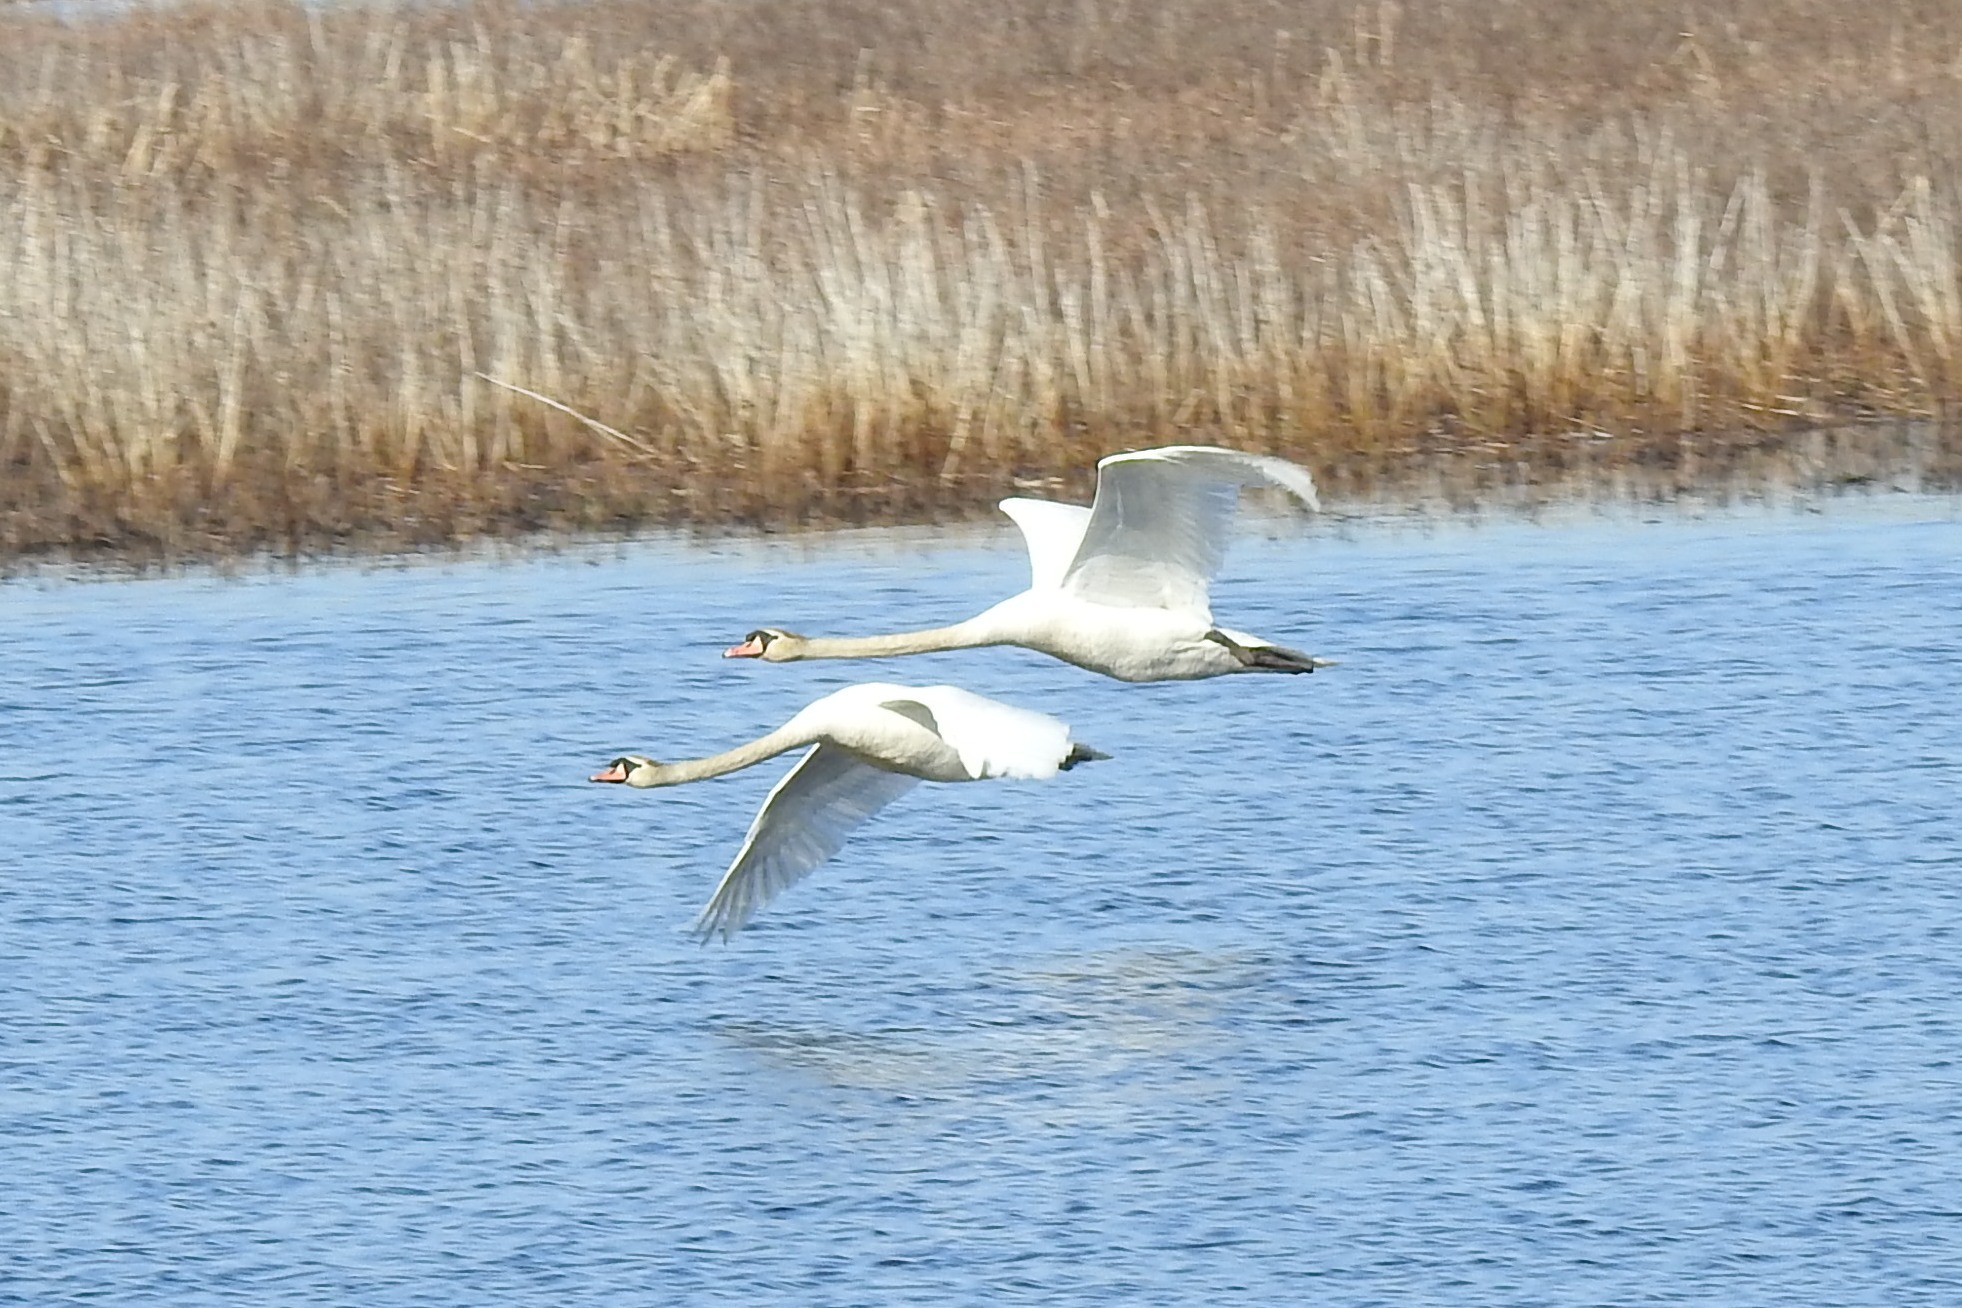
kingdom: Animalia
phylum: Chordata
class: Aves
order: Anseriformes
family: Anatidae
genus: Cygnus
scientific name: Cygnus olor
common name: Mute swan
